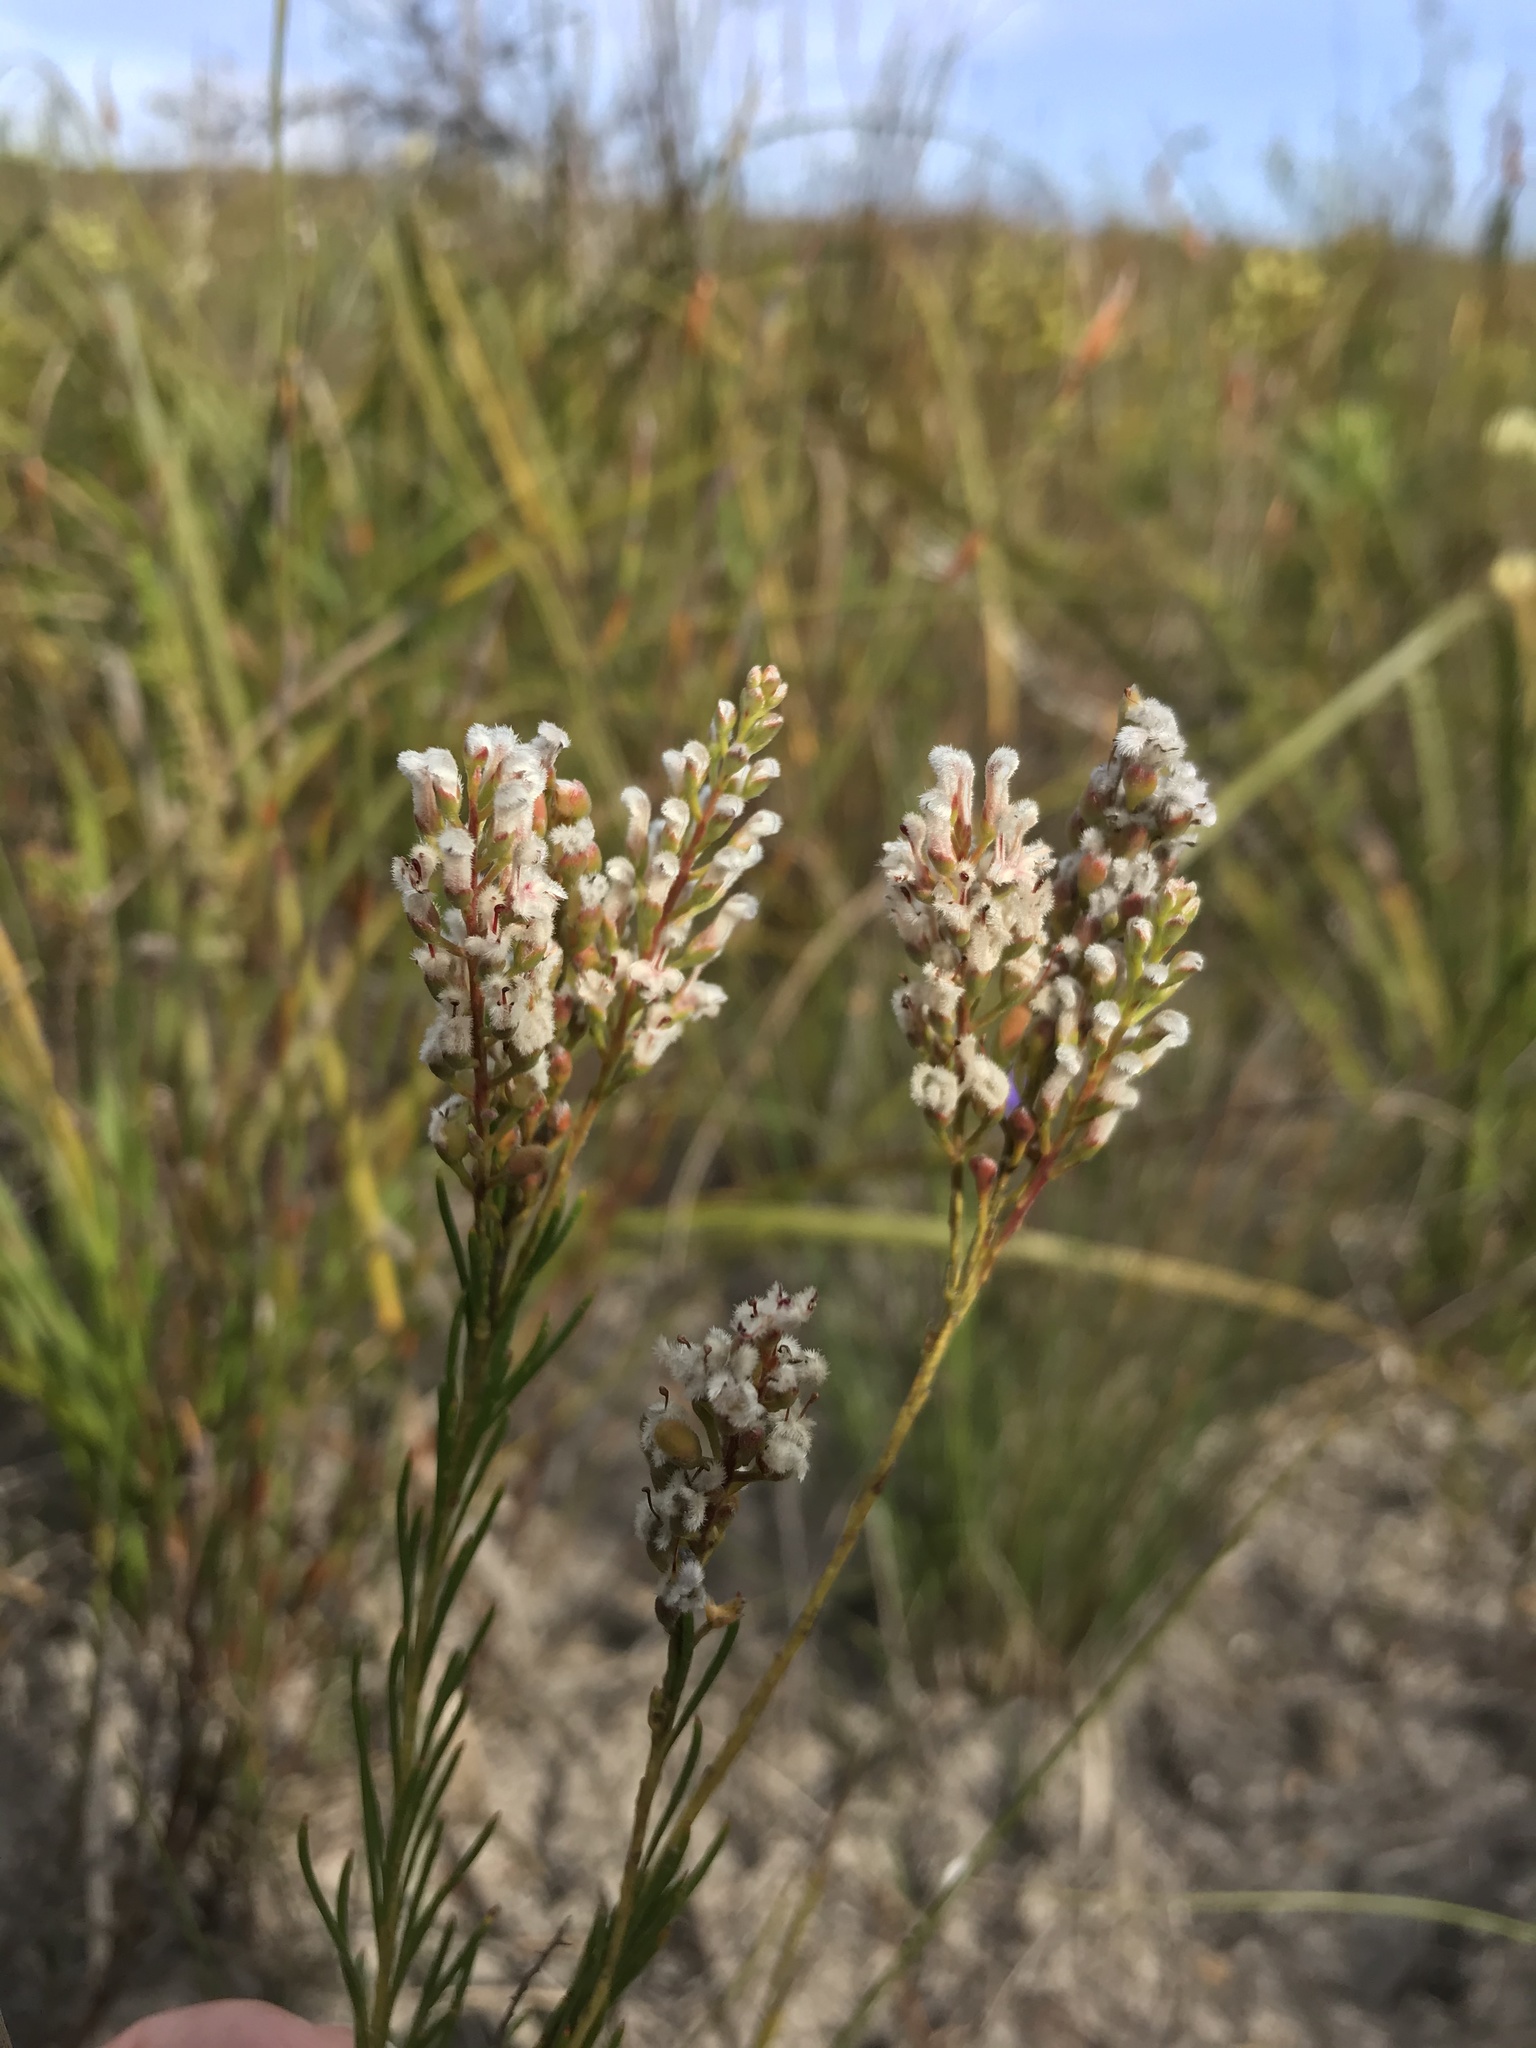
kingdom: Plantae
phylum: Tracheophyta
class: Magnoliopsida
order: Proteales
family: Proteaceae
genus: Spatalla
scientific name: Spatalla racemosa
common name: Lax-stalked spoon
